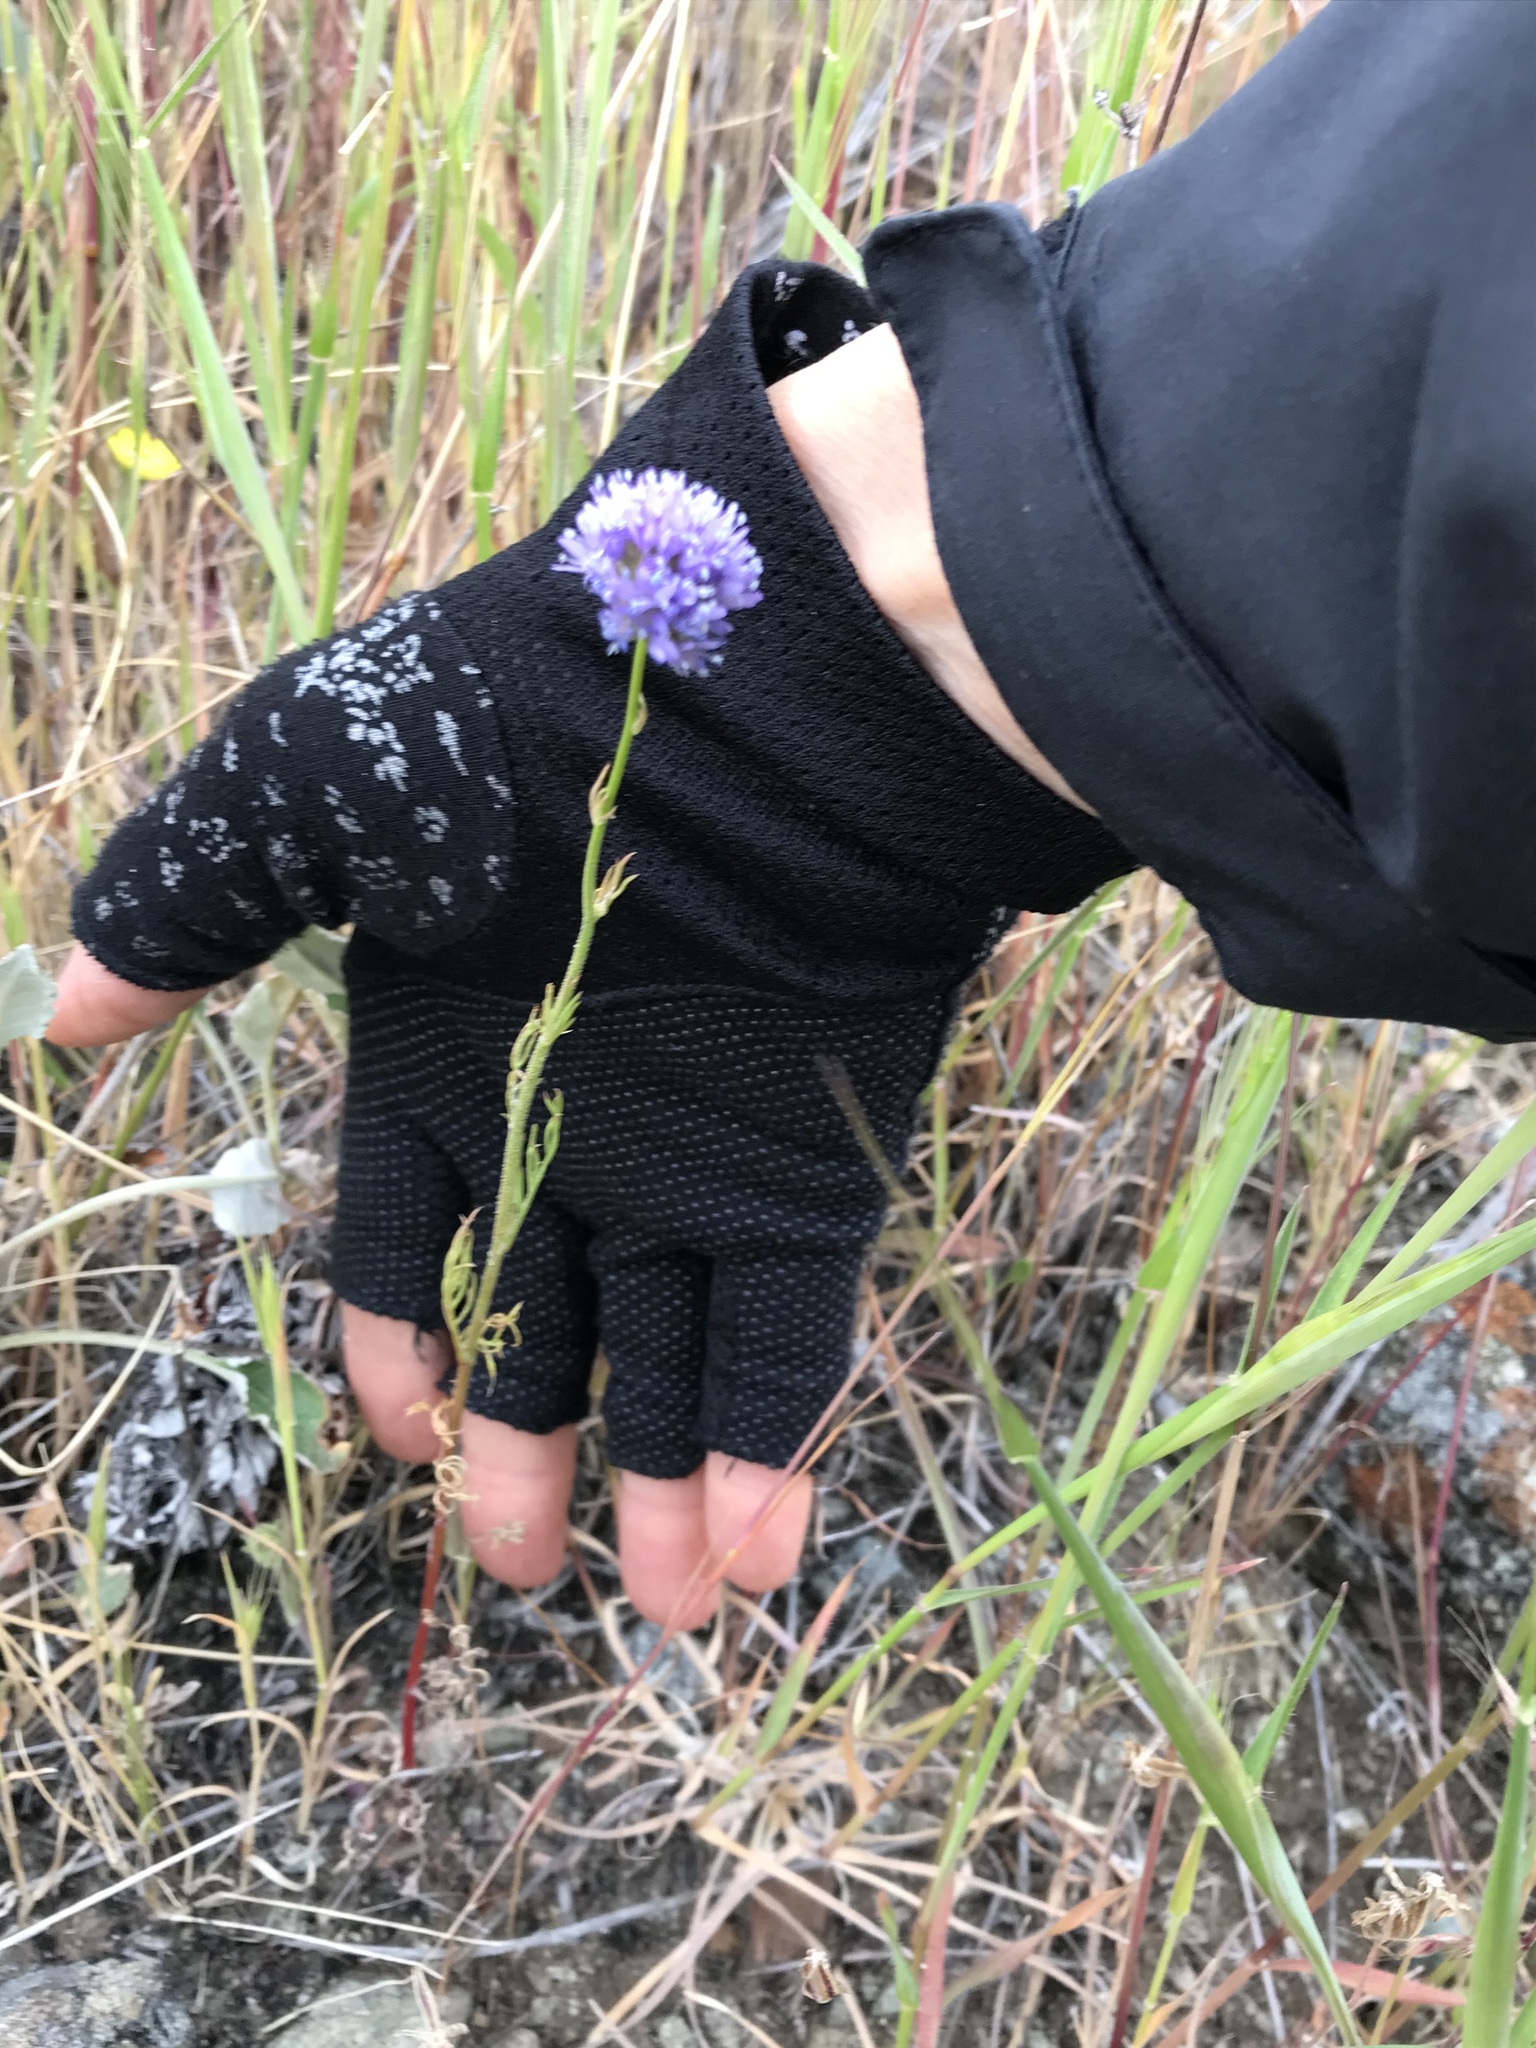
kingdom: Plantae
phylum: Tracheophyta
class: Magnoliopsida
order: Ericales
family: Polemoniaceae
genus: Gilia
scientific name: Gilia capitata
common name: Bluehead gilia
